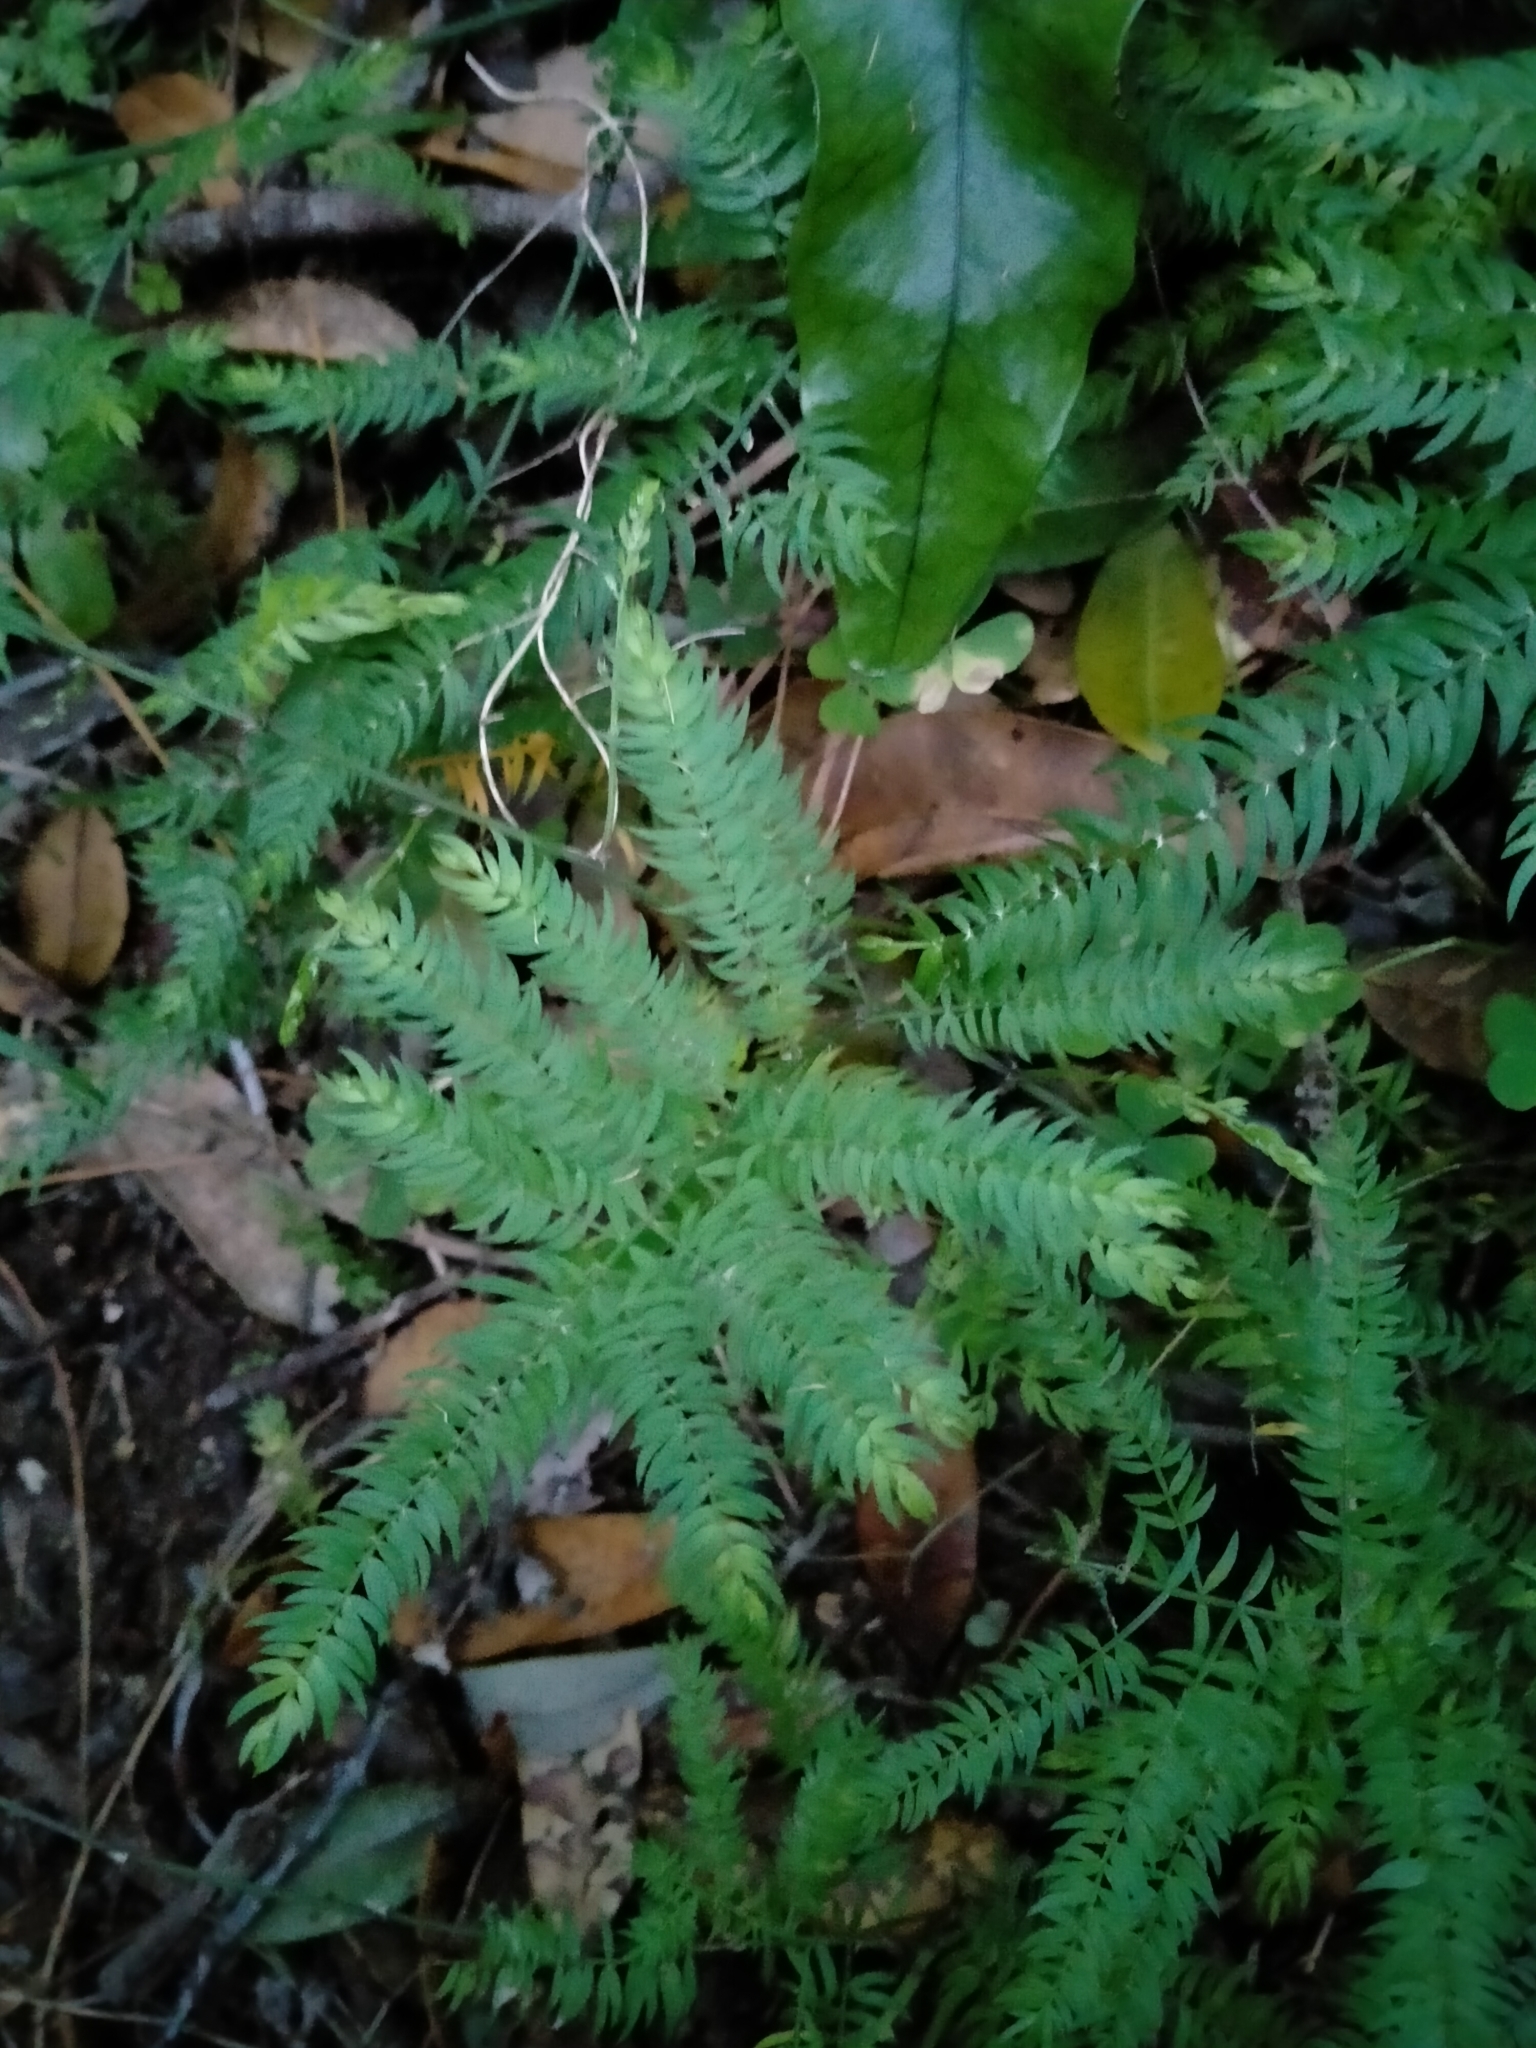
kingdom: Plantae
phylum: Tracheophyta
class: Liliopsida
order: Asparagales
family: Asparagaceae
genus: Asparagus
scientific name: Asparagus scandens
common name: Asparagus-fern
